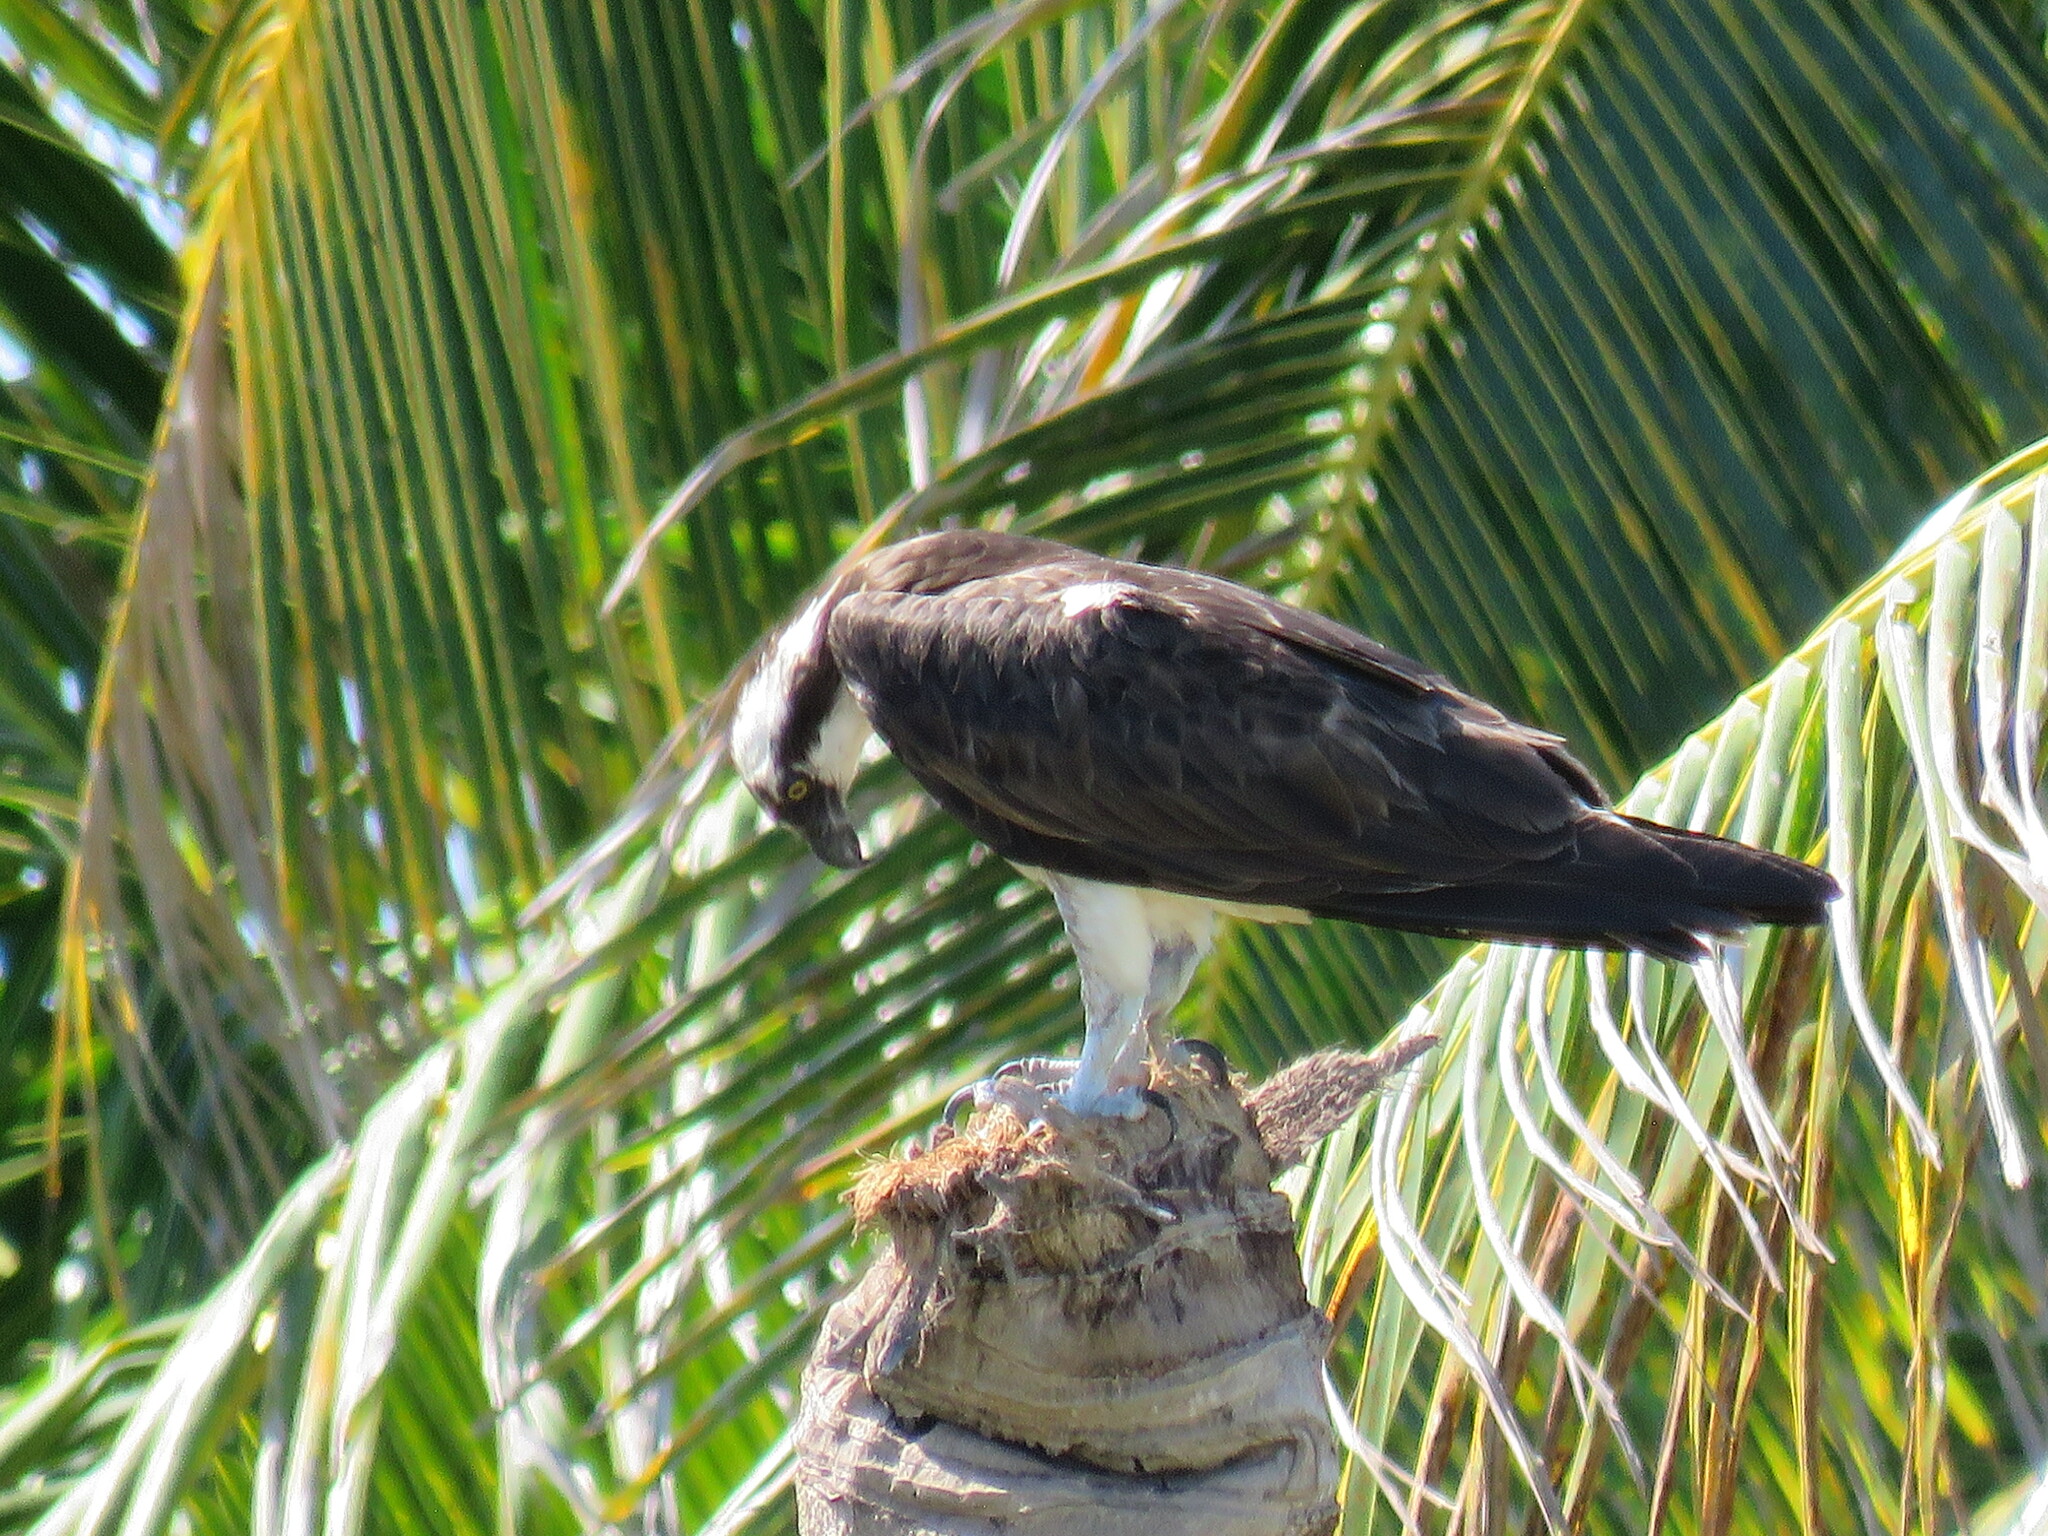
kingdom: Animalia
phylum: Chordata
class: Aves
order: Accipitriformes
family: Pandionidae
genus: Pandion
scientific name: Pandion haliaetus
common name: Osprey
